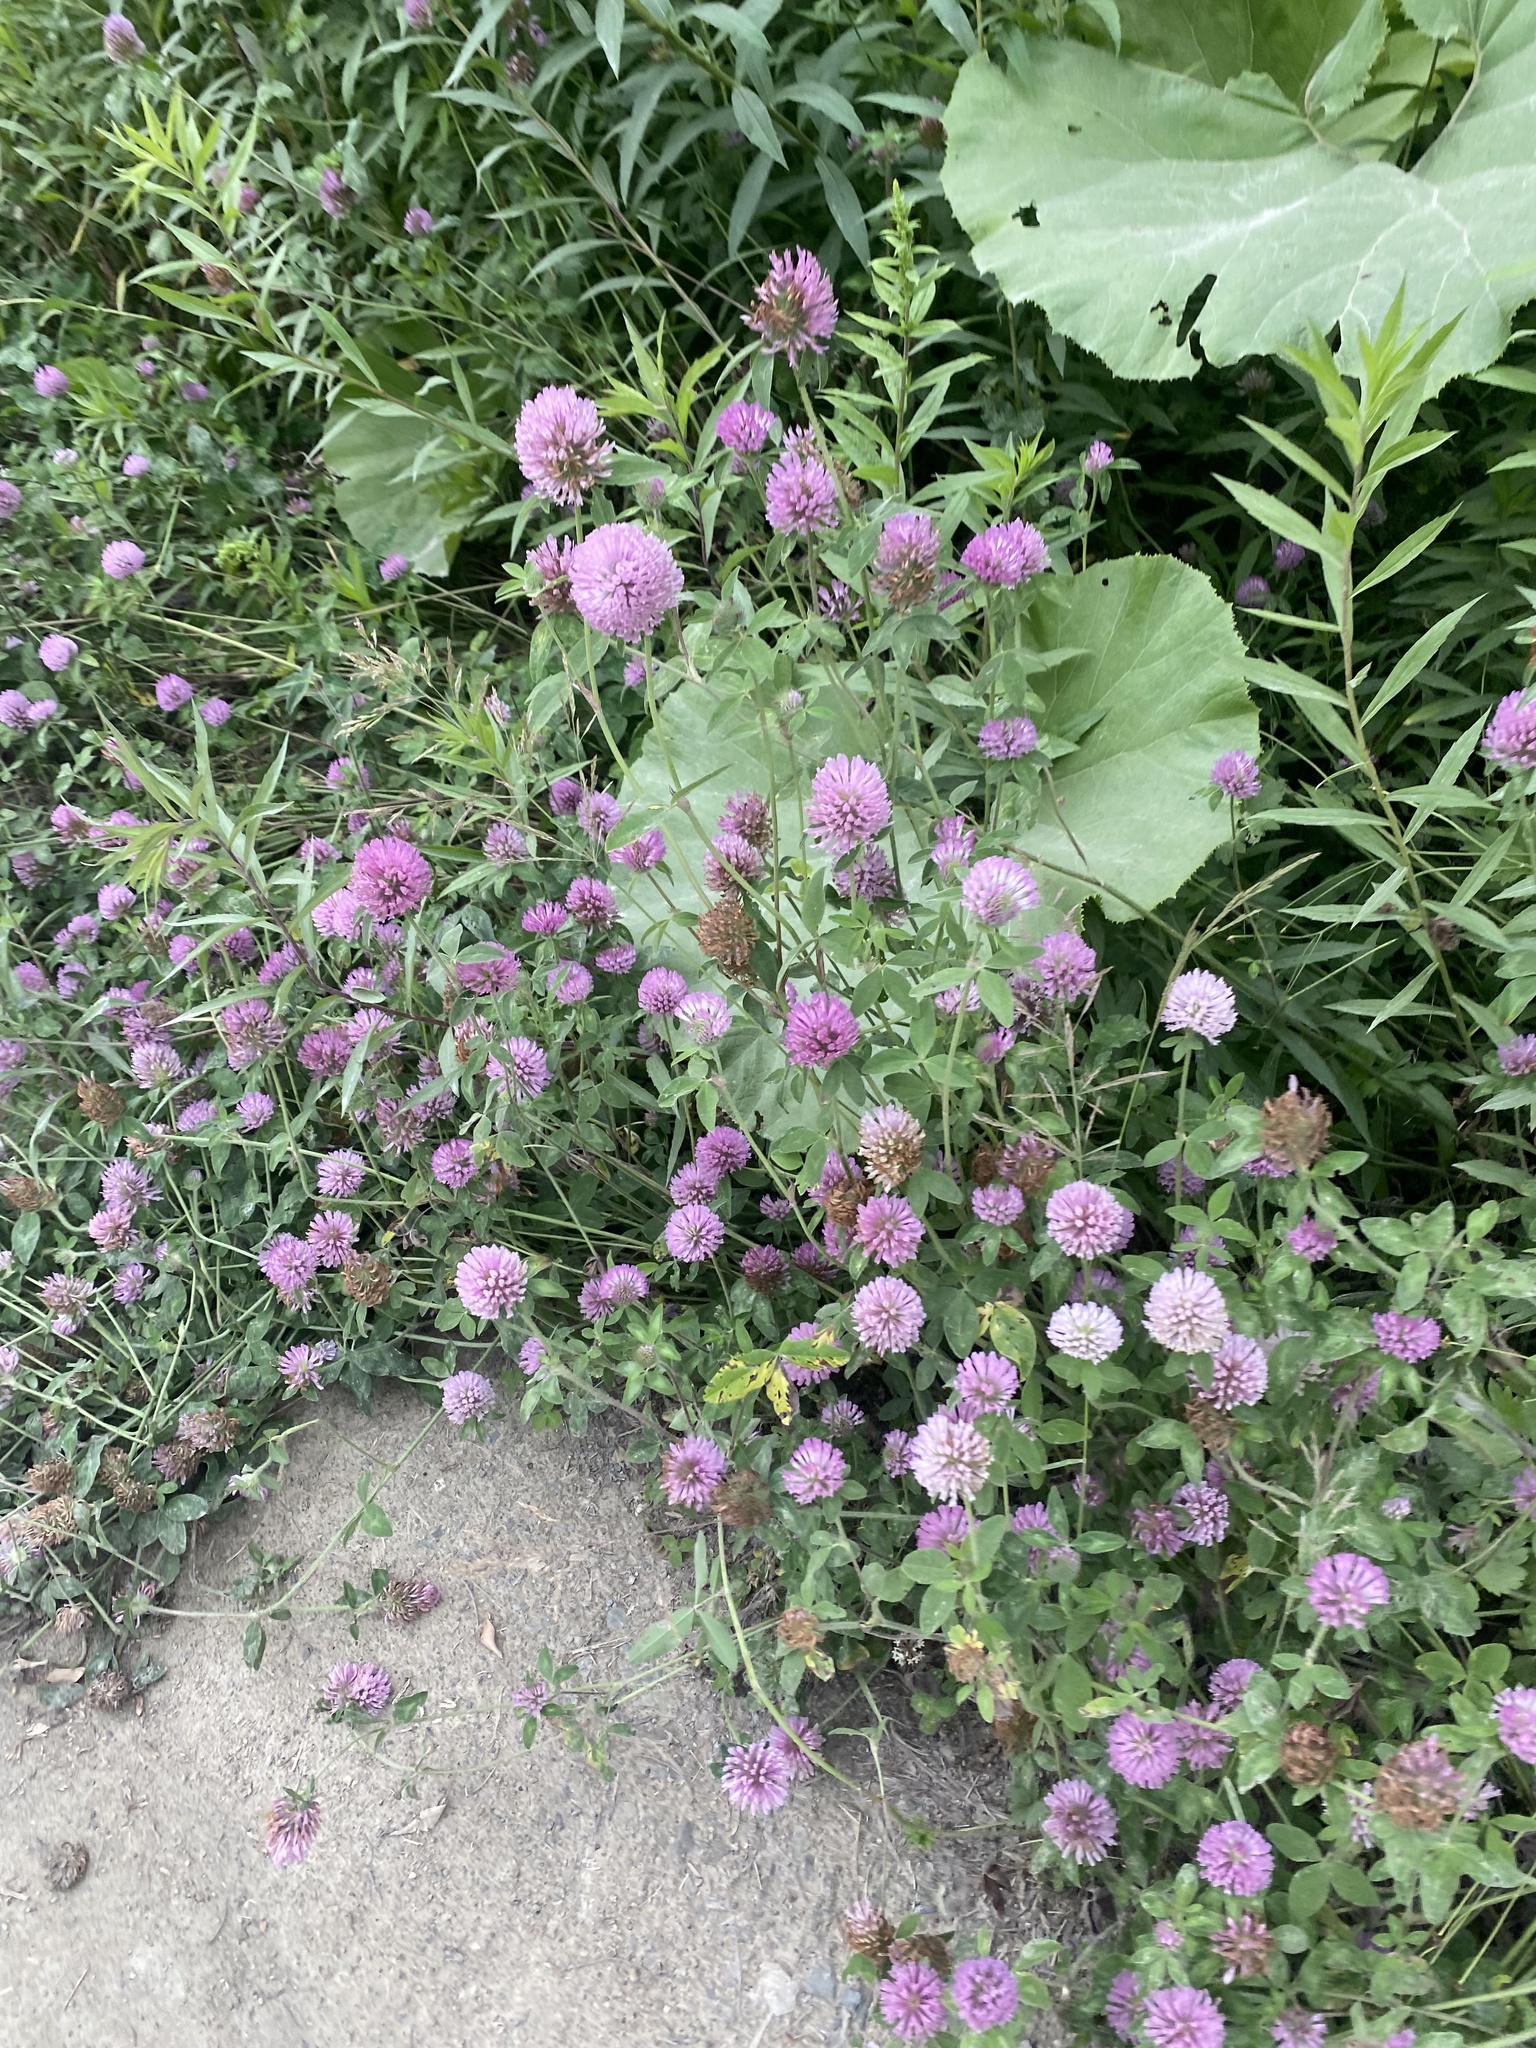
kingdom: Plantae
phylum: Tracheophyta
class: Magnoliopsida
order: Fabales
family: Fabaceae
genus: Trifolium
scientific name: Trifolium pratense
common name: Red clover
